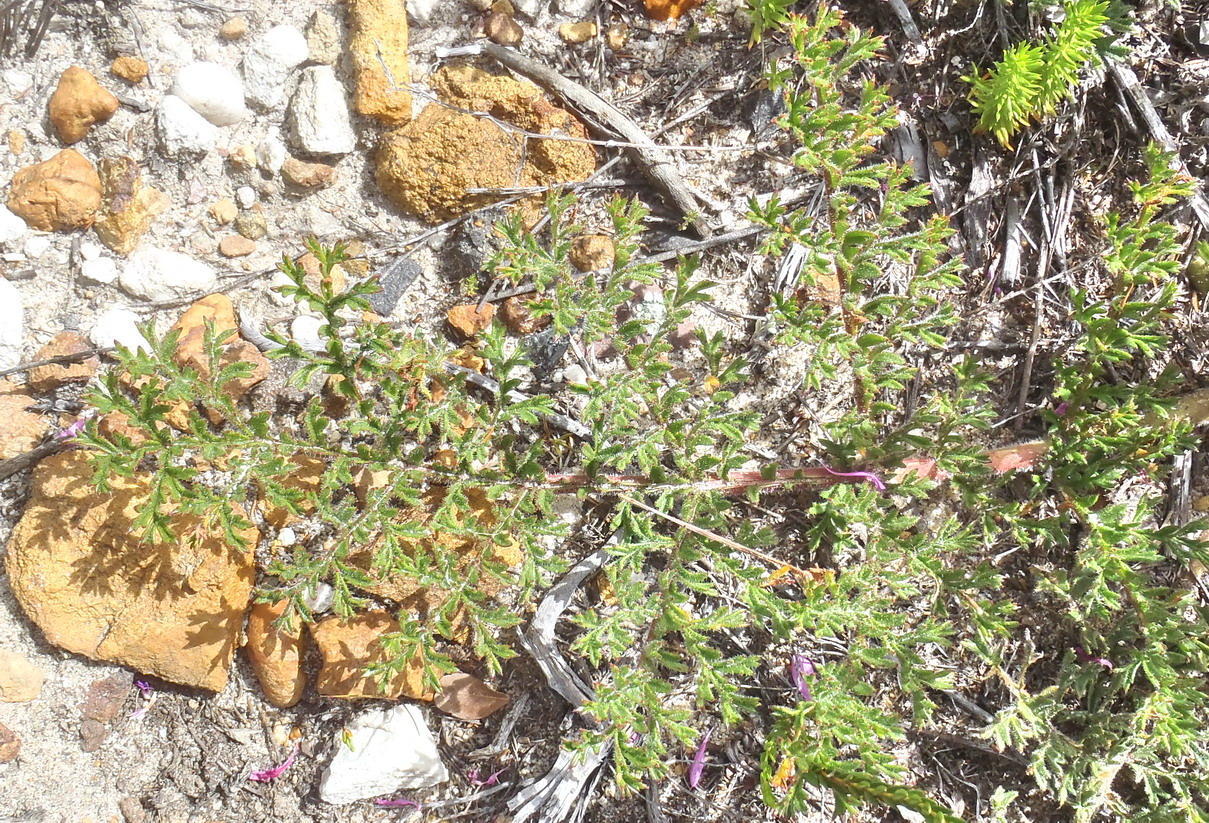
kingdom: Plantae
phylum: Tracheophyta
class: Magnoliopsida
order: Geraniales
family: Geraniaceae
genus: Pelargonium
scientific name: Pelargonium triste
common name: Night-scent pelargonium
